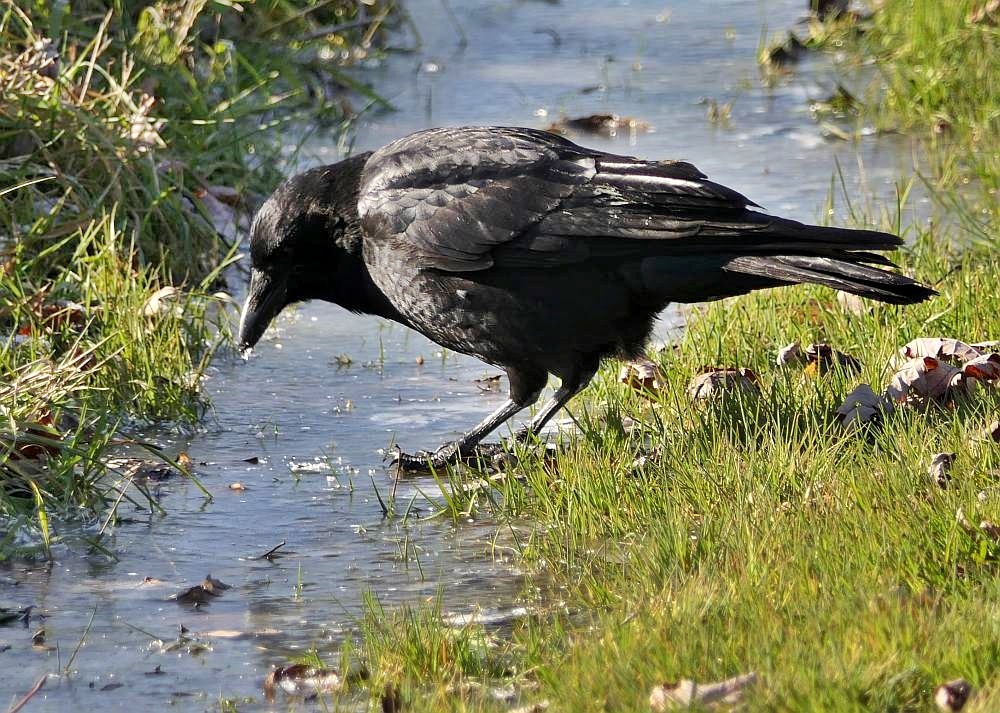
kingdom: Animalia
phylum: Chordata
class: Aves
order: Passeriformes
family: Corvidae
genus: Corvus
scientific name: Corvus brachyrhynchos
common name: American crow
